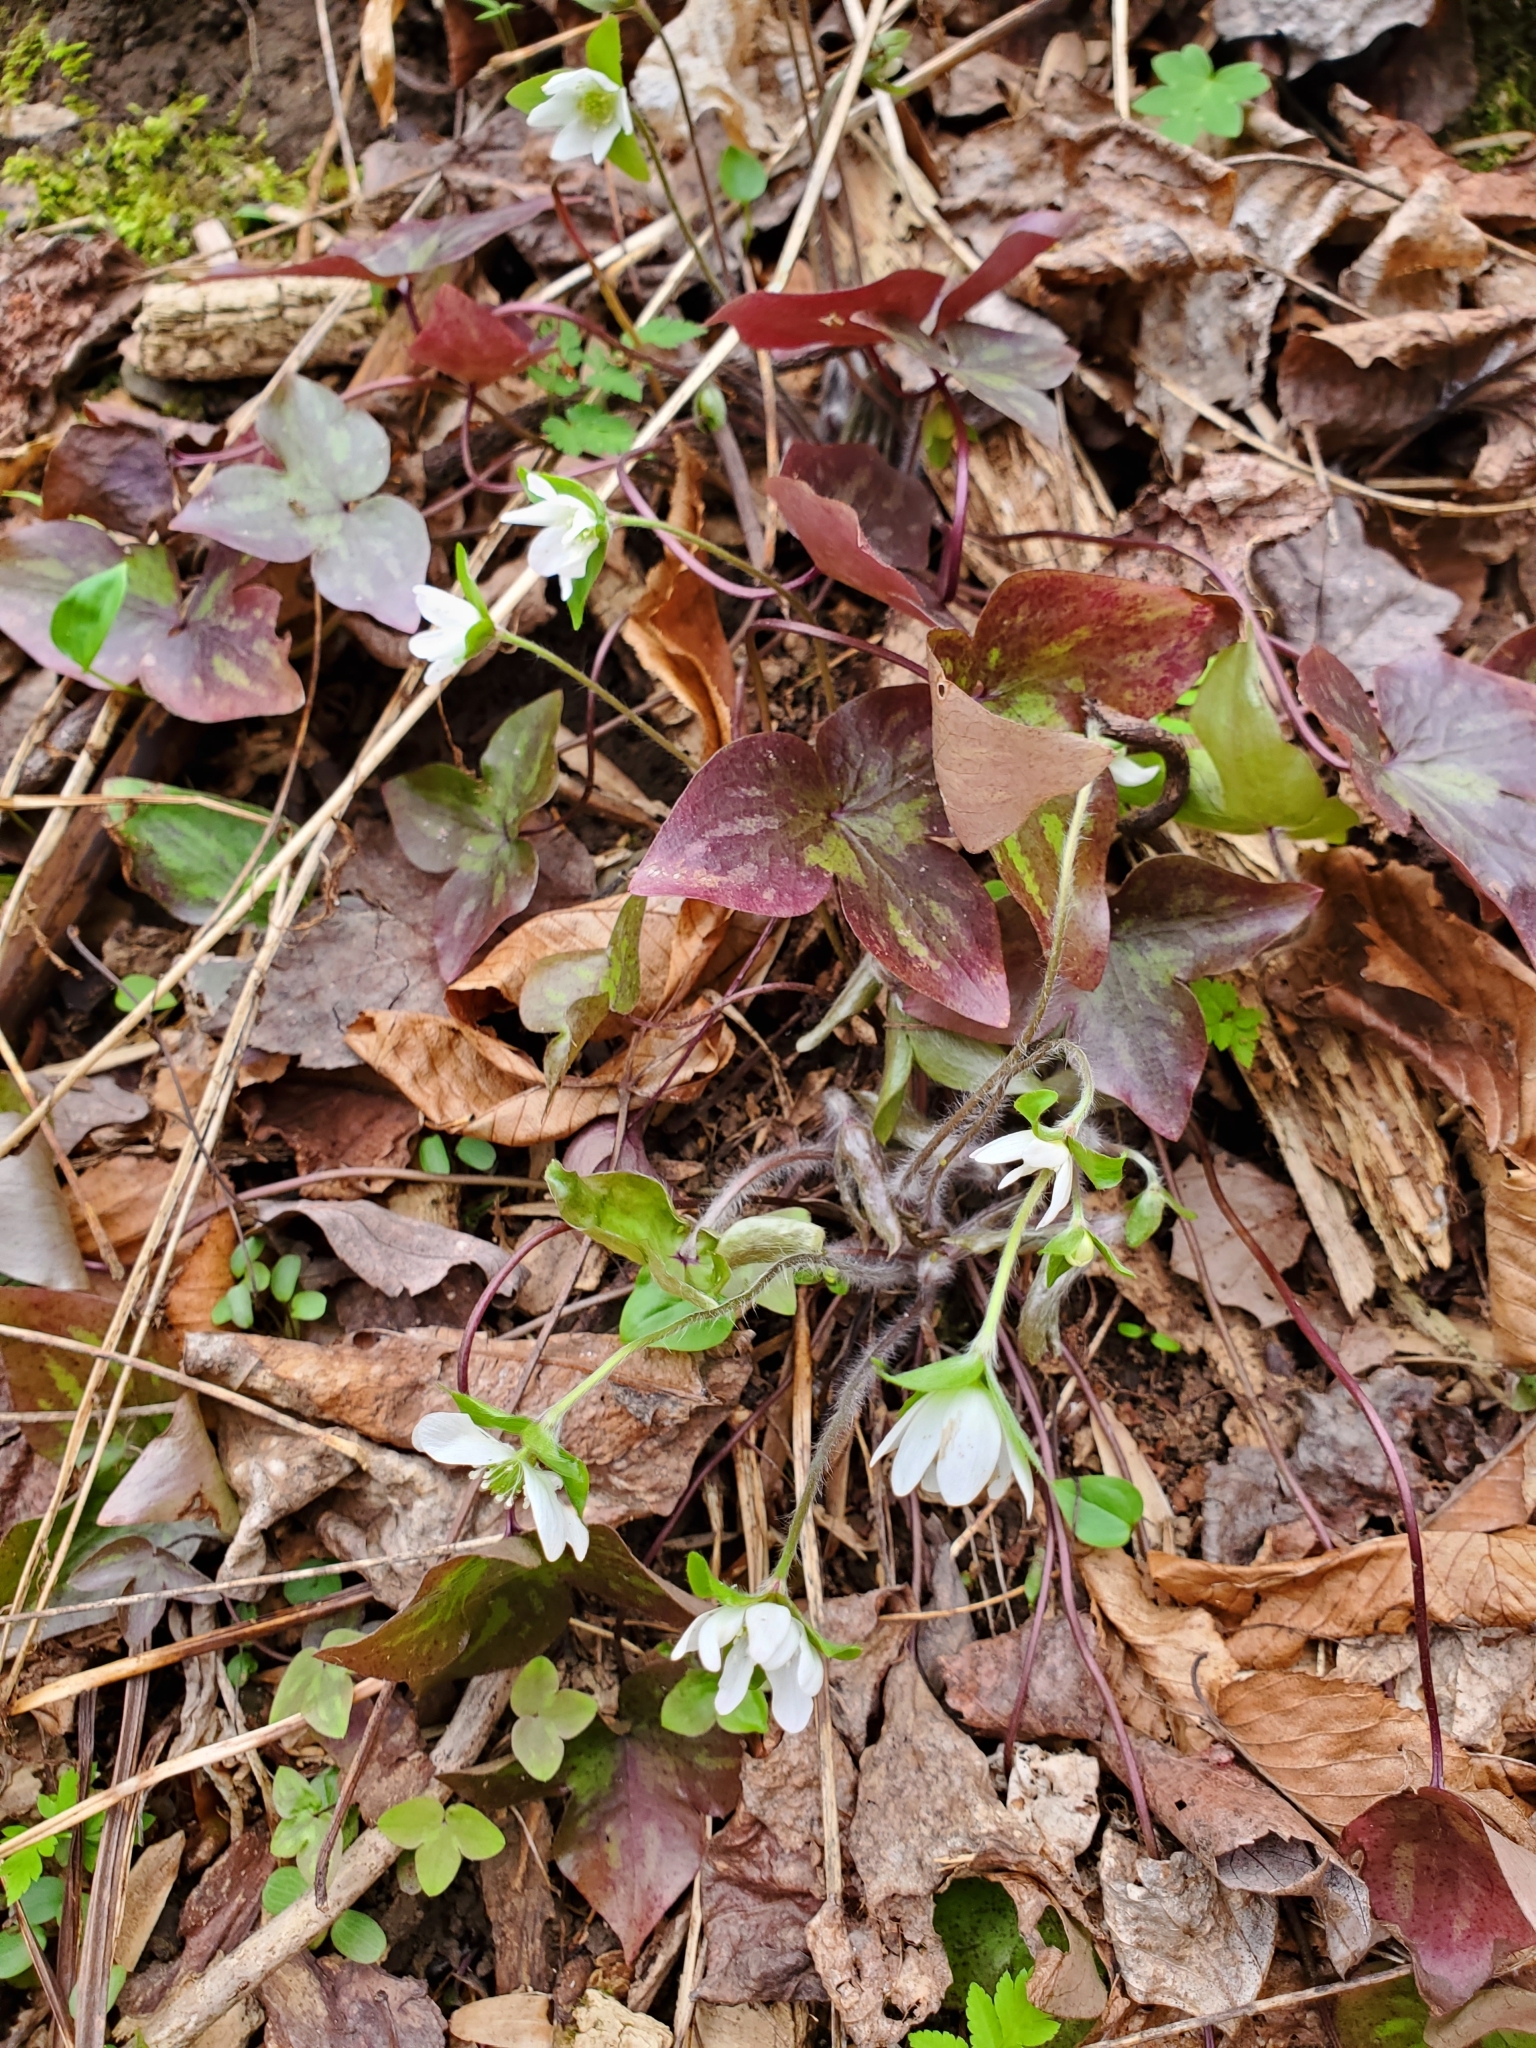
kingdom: Plantae
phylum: Tracheophyta
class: Magnoliopsida
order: Ranunculales
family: Ranunculaceae
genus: Hepatica
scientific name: Hepatica acutiloba
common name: Sharp-lobed hepatica
